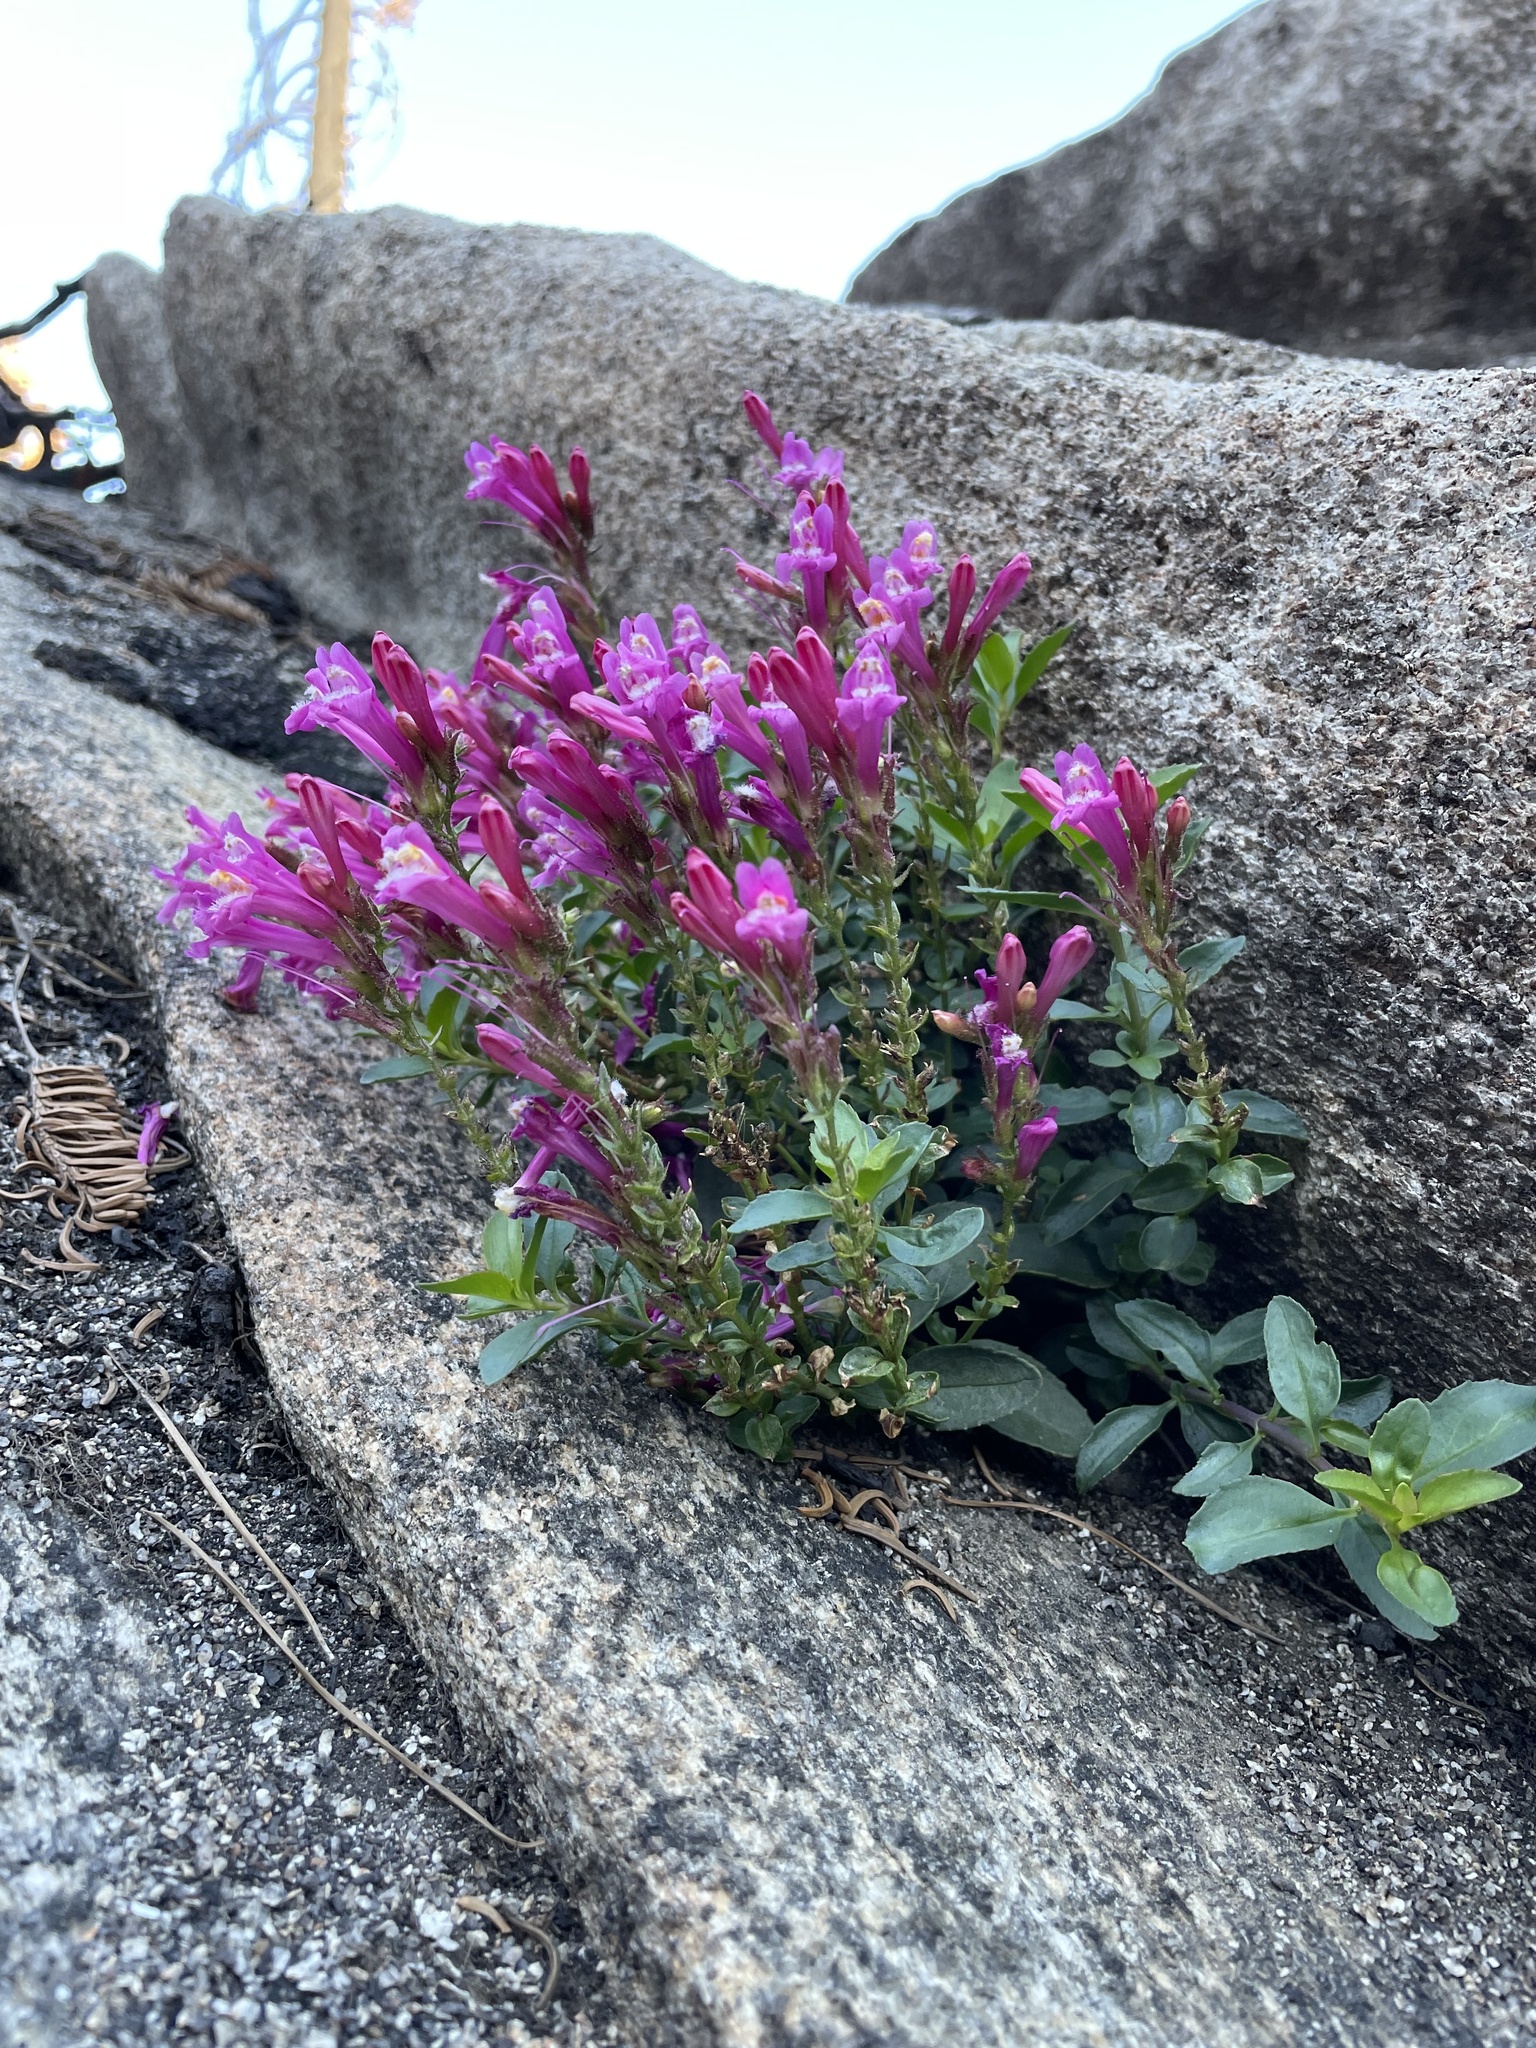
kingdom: Plantae
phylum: Tracheophyta
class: Magnoliopsida
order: Lamiales
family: Plantaginaceae
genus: Penstemon
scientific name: Penstemon newberryi
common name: Mountain-pride
